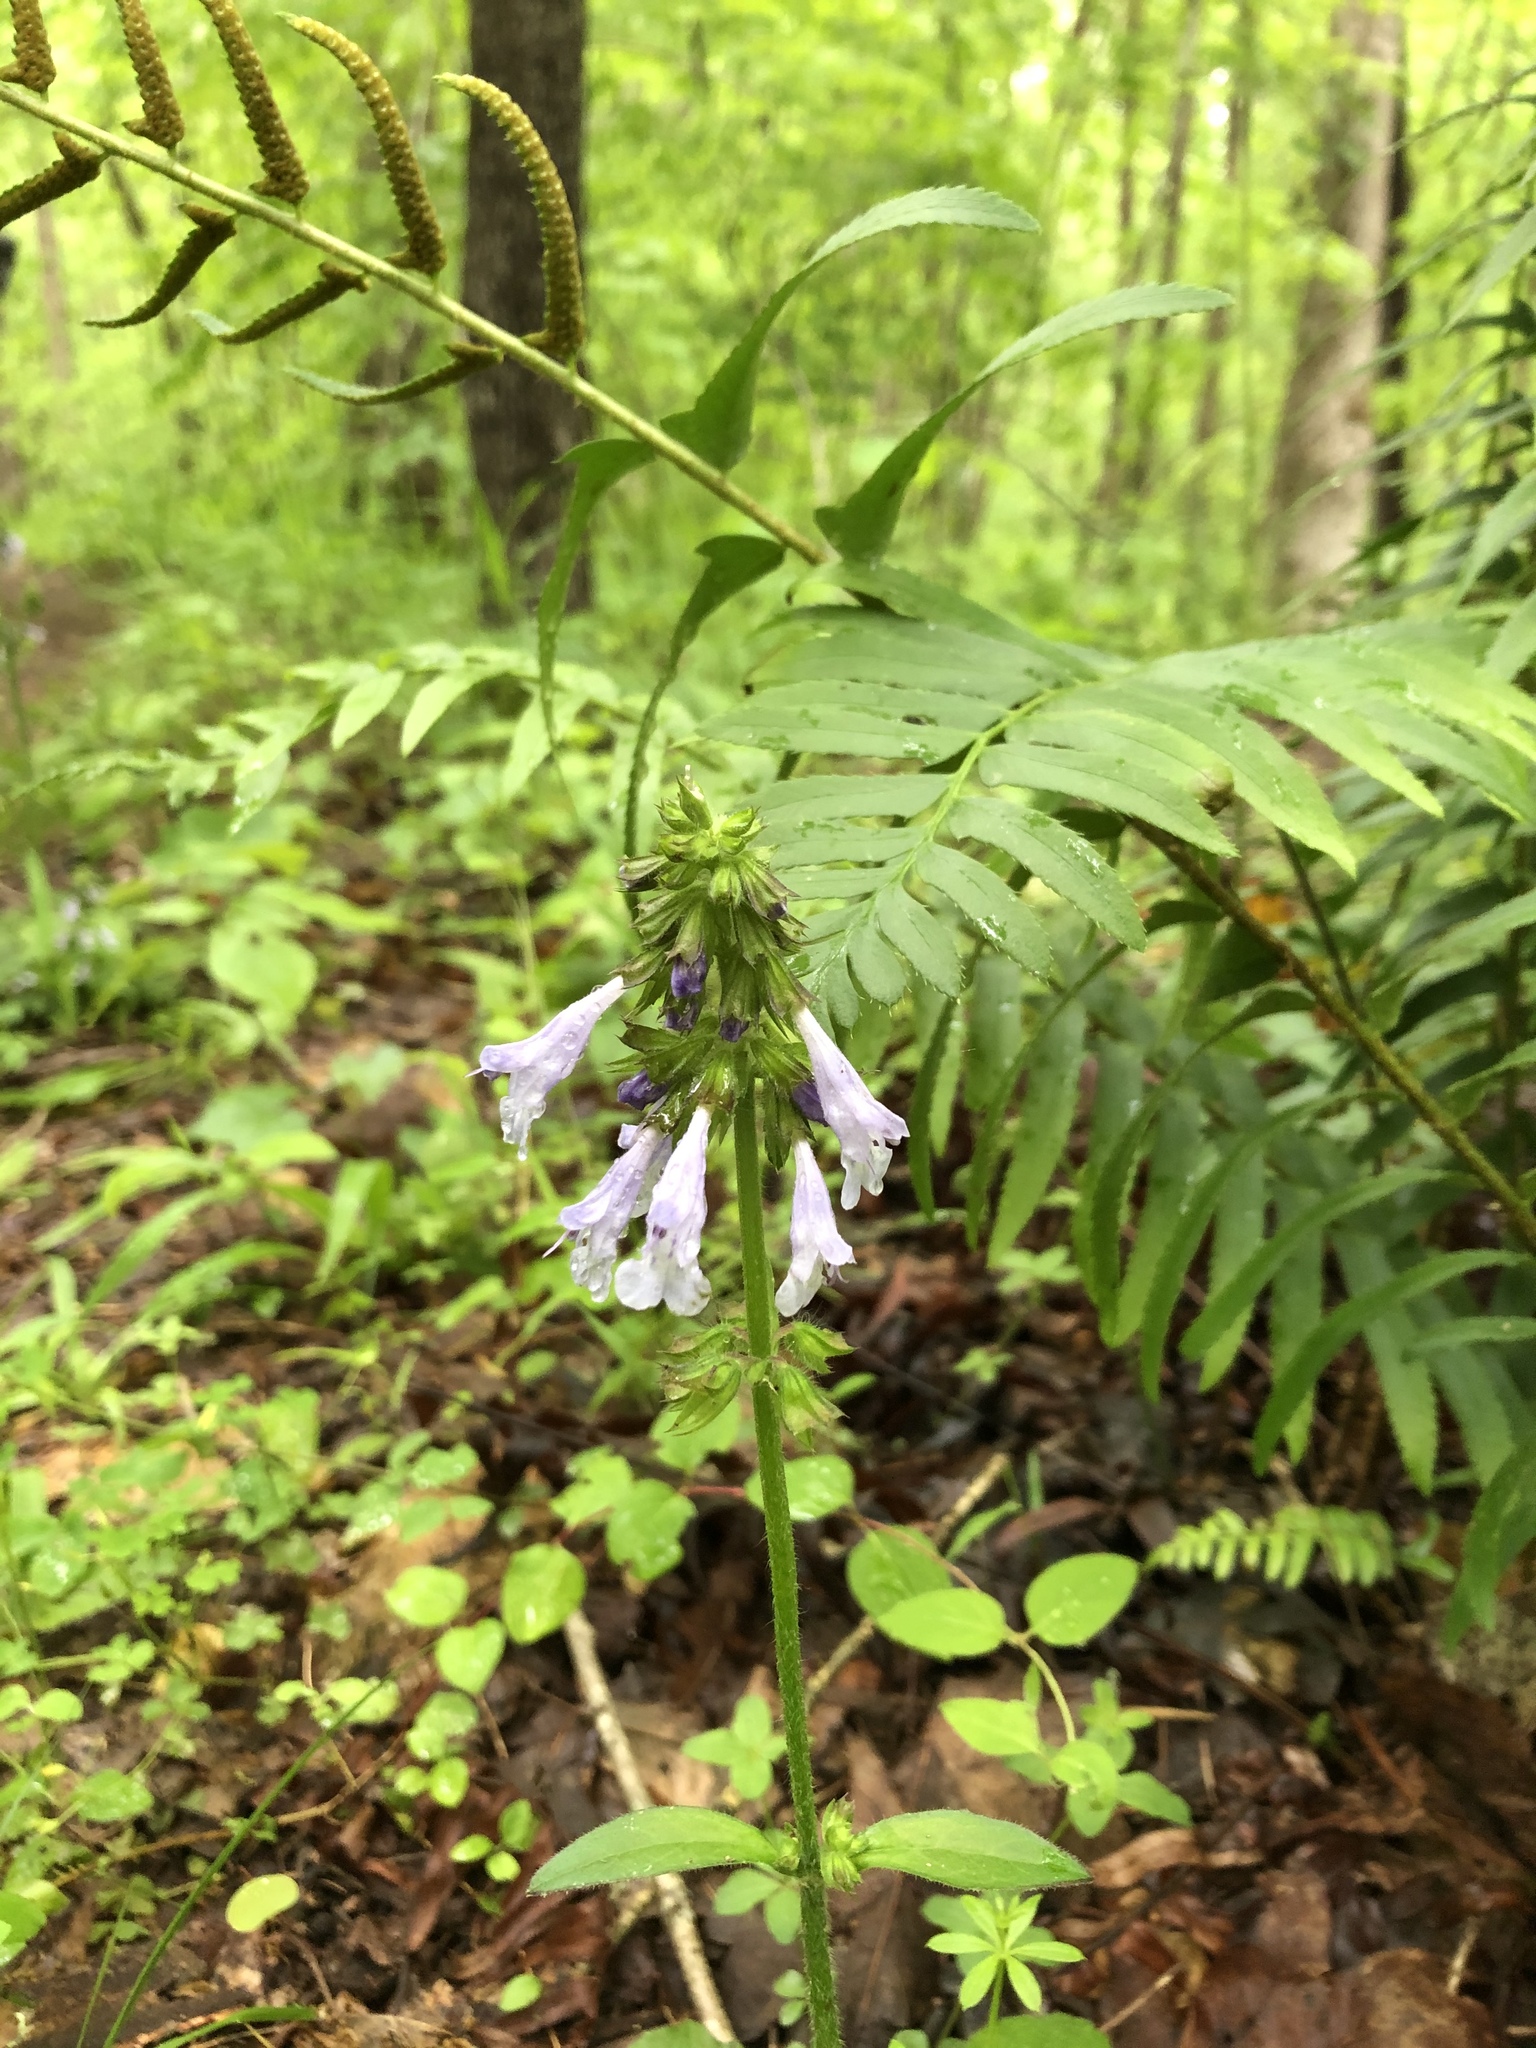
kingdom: Plantae
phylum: Tracheophyta
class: Magnoliopsida
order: Lamiales
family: Lamiaceae
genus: Salvia
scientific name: Salvia lyrata
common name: Cancerweed
